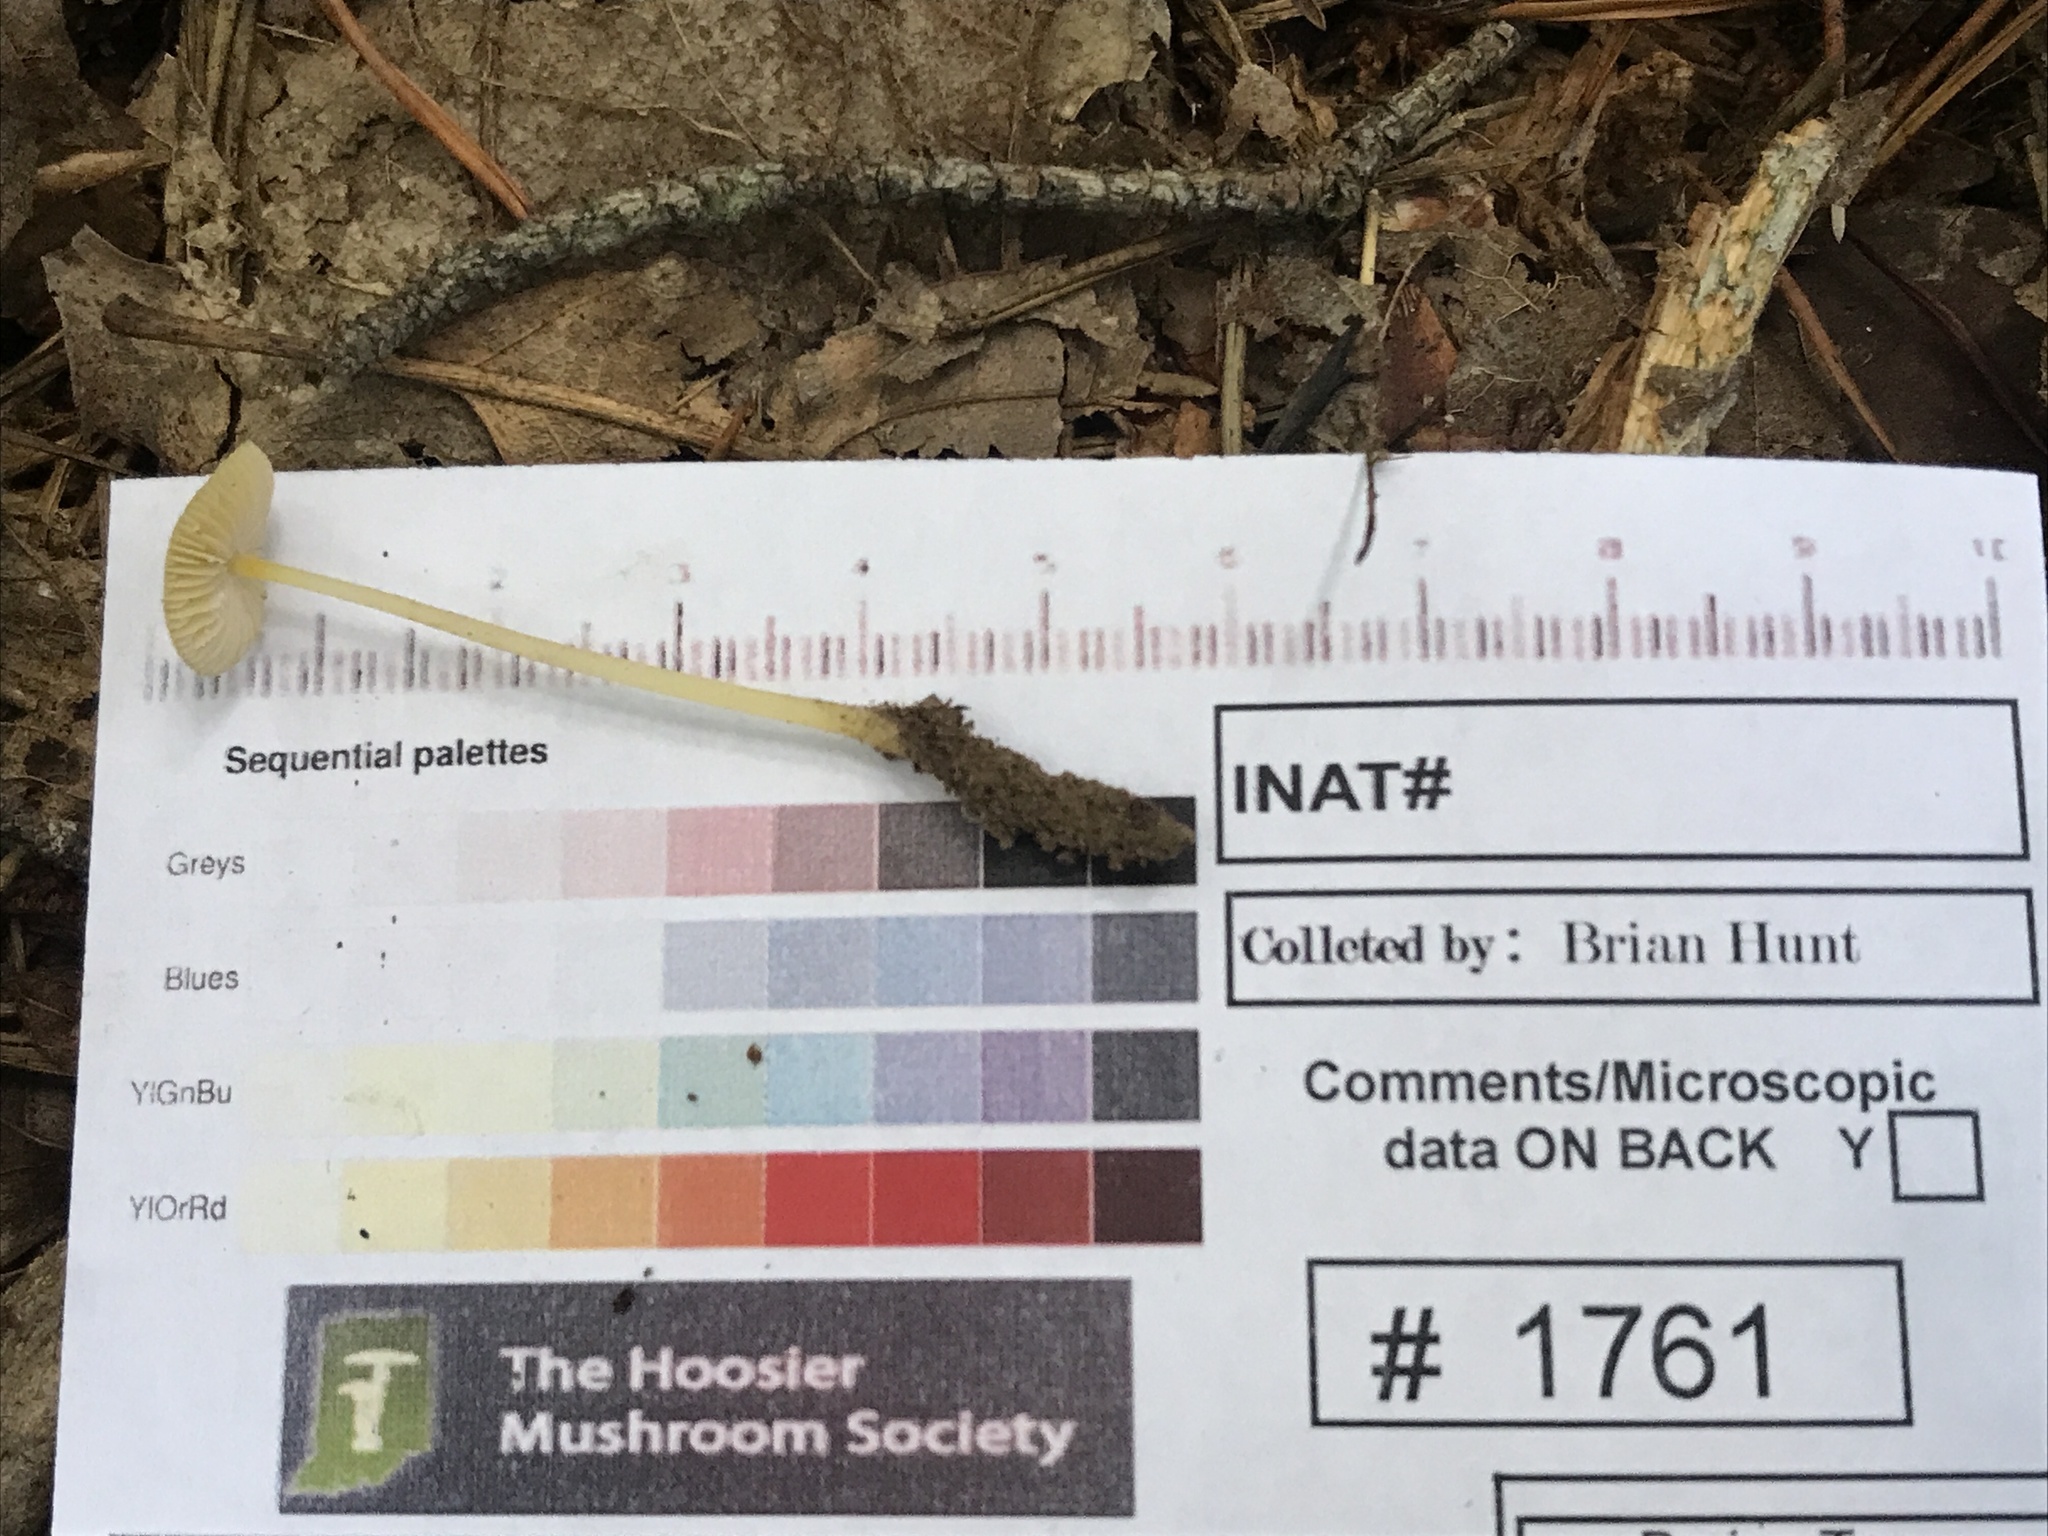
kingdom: Fungi
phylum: Basidiomycota
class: Agaricomycetes
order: Agaricales
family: Mycenaceae
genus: Mycena
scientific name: Mycena crocea
